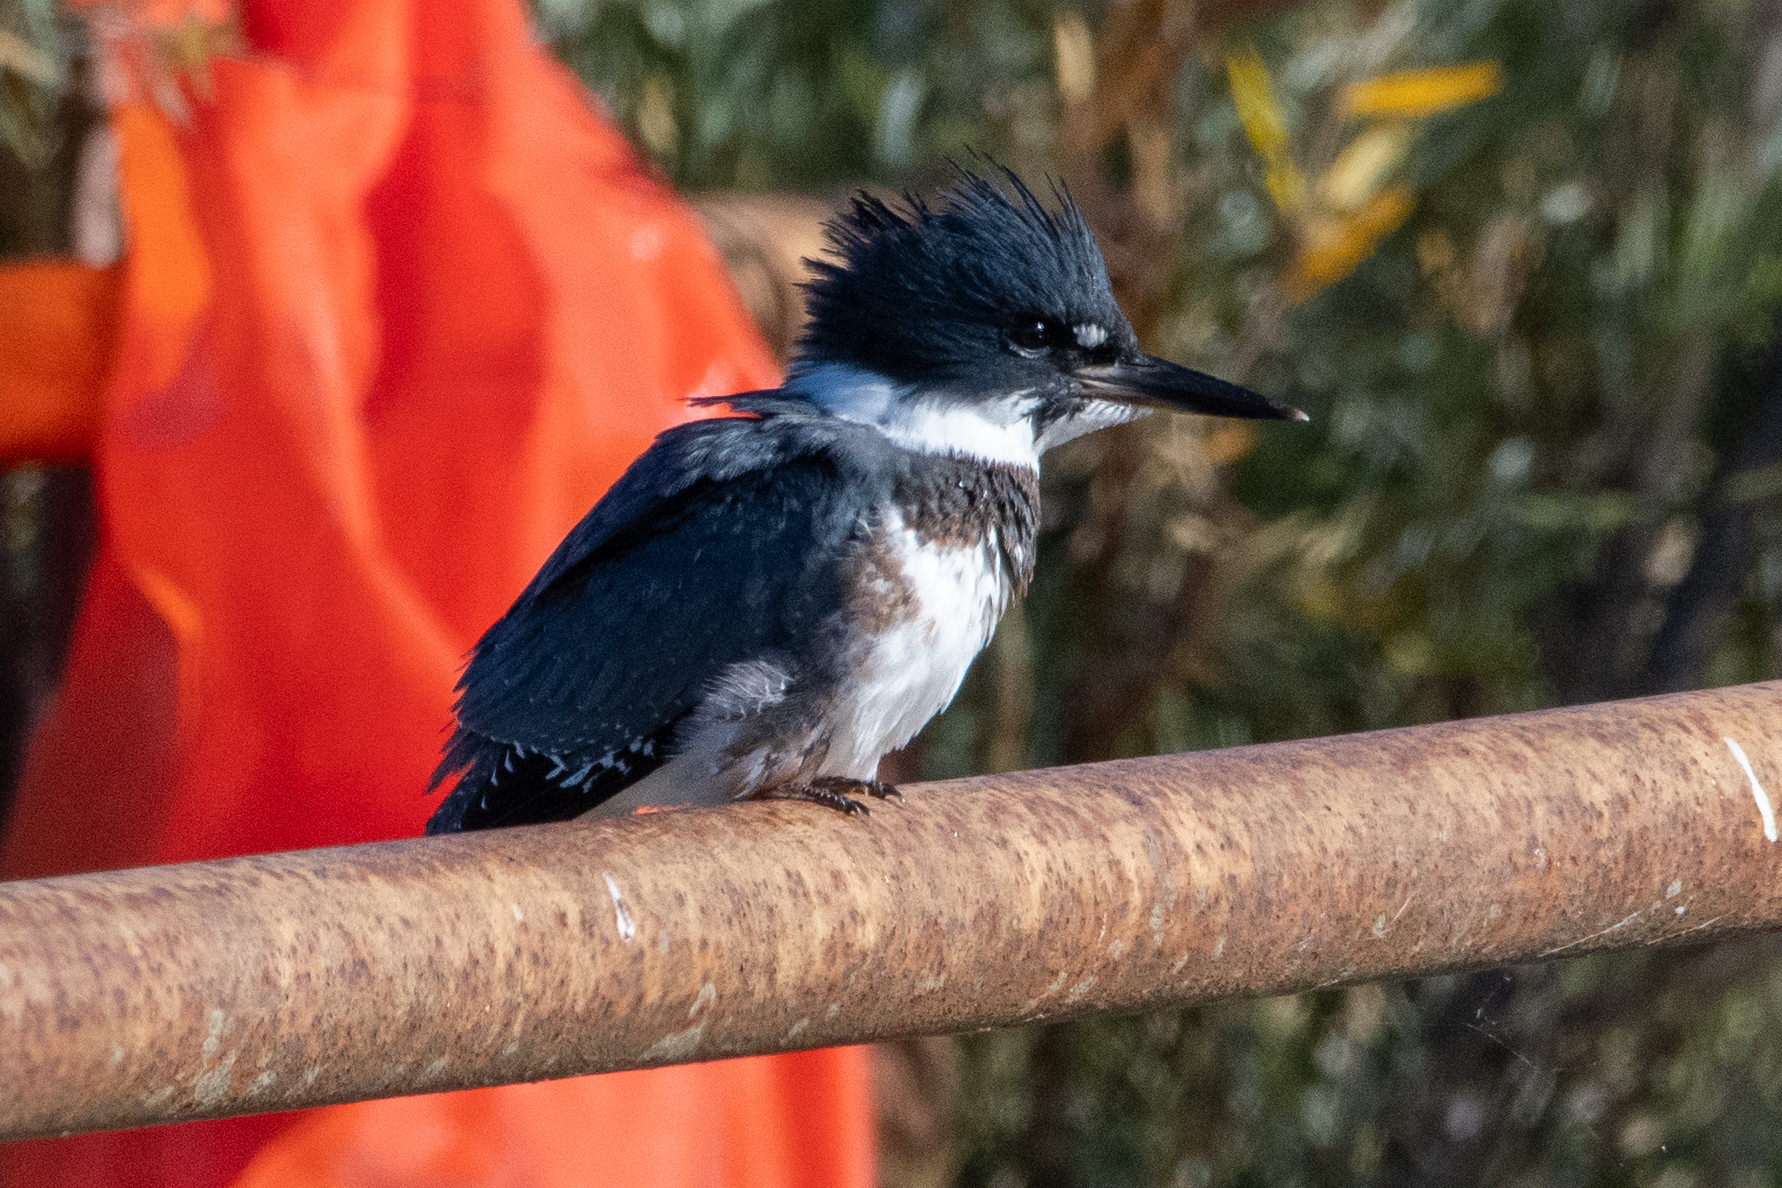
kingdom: Animalia
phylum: Chordata
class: Aves
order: Coraciiformes
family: Alcedinidae
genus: Megaceryle
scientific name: Megaceryle alcyon
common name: Belted kingfisher
